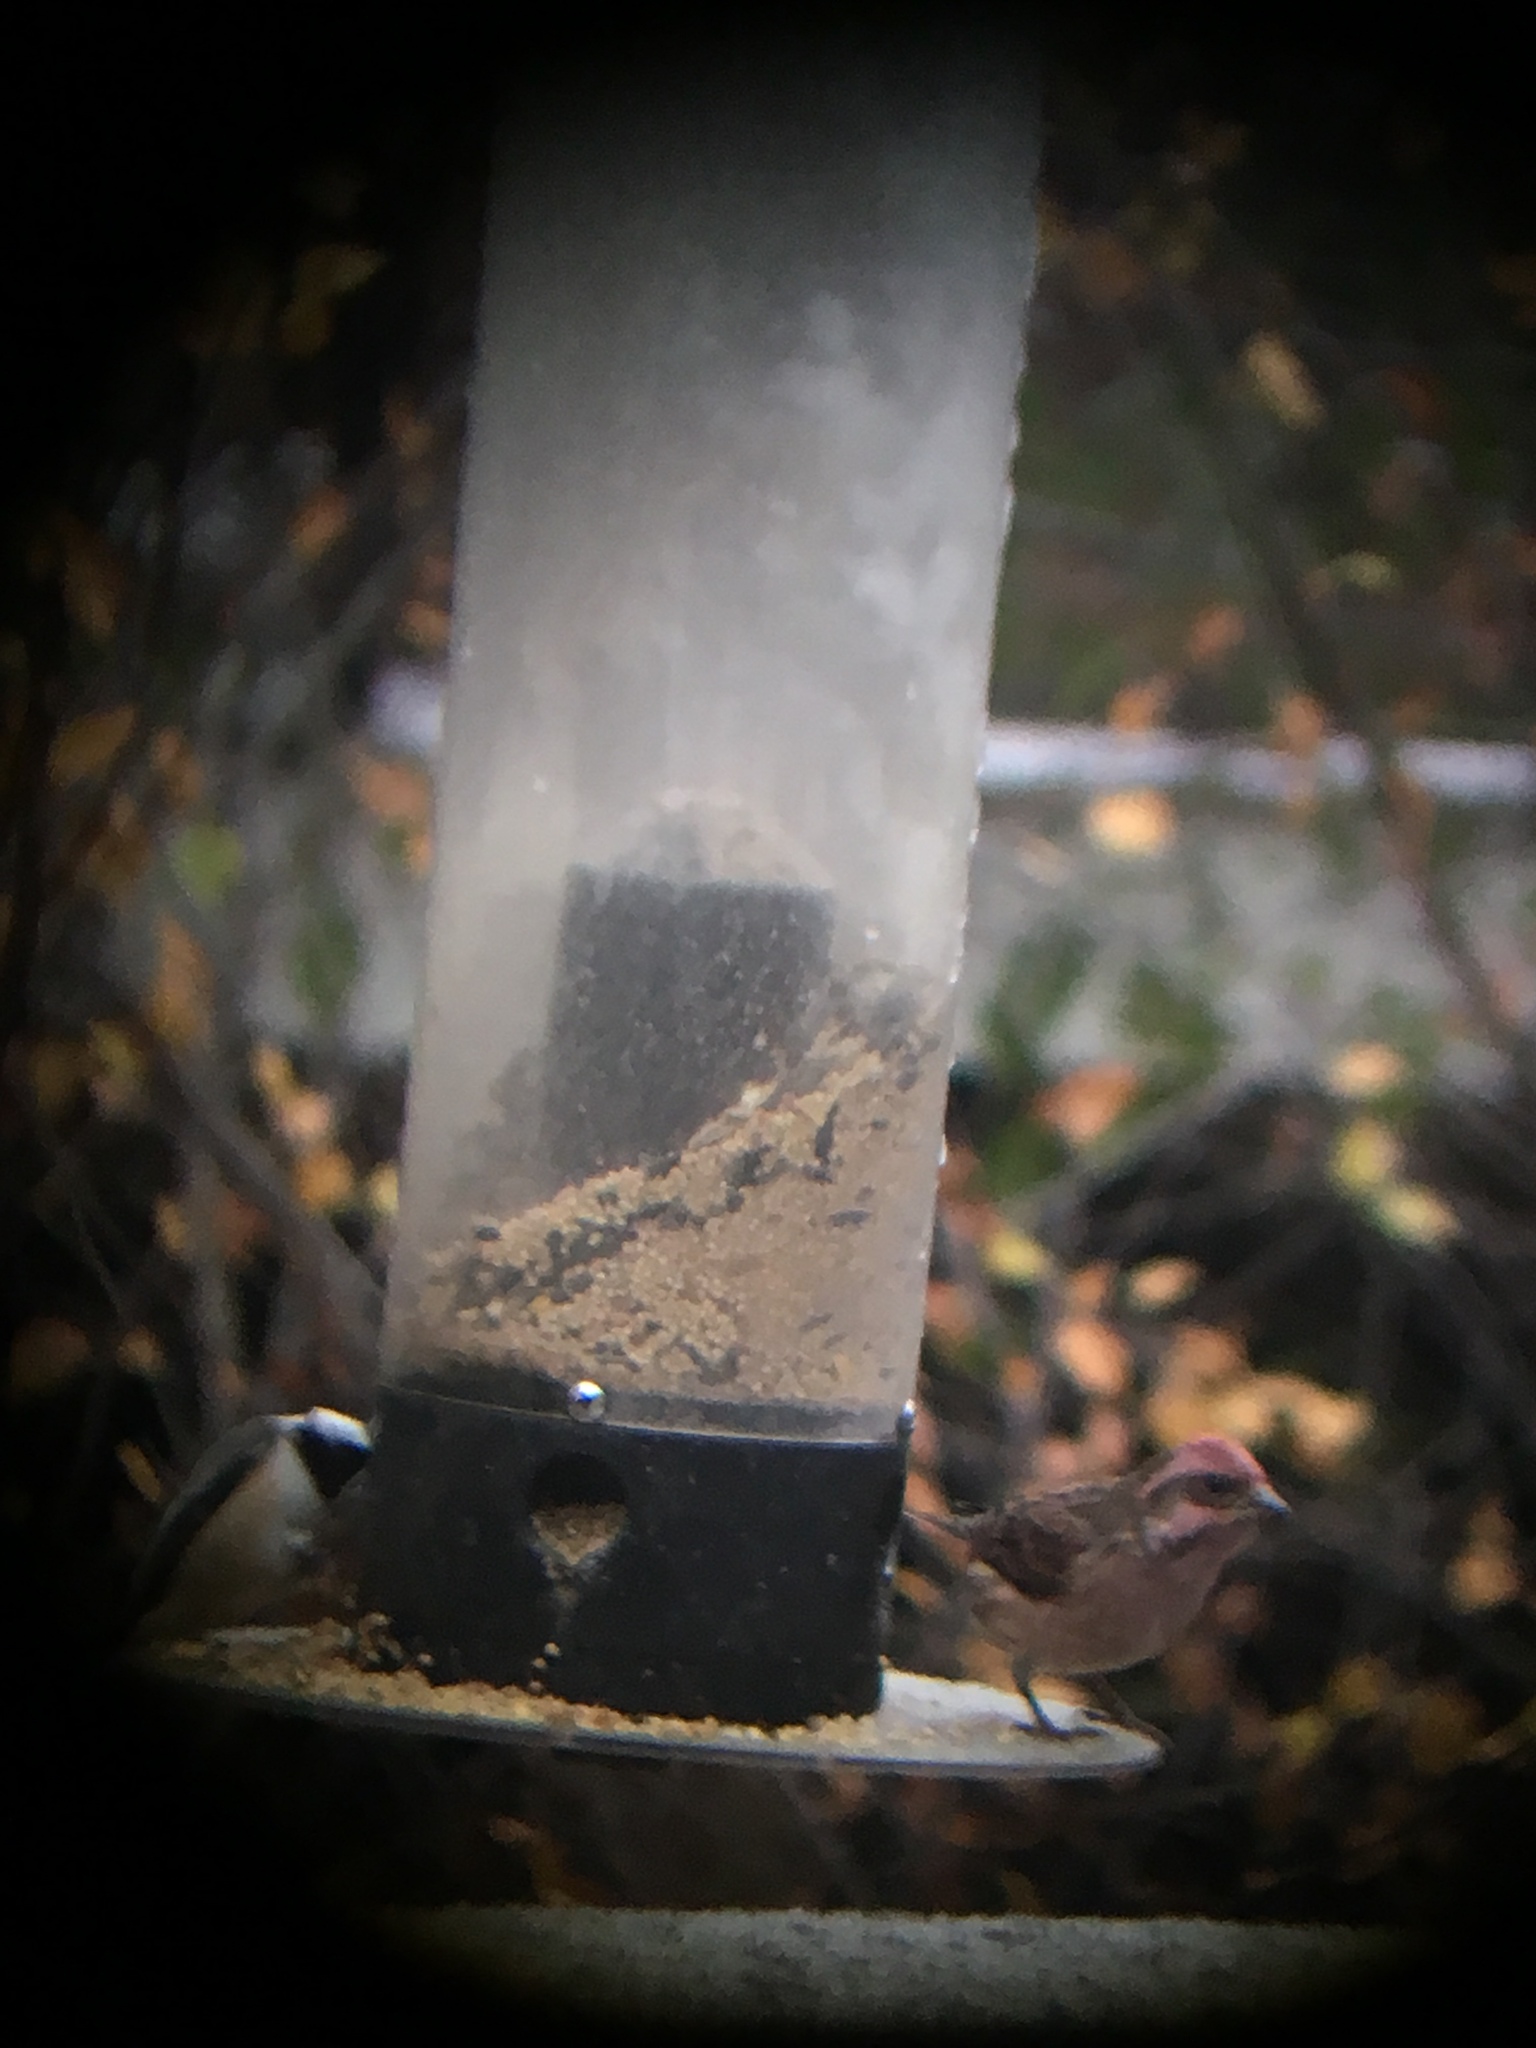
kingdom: Animalia
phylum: Chordata
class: Aves
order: Passeriformes
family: Fringillidae
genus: Haemorhous
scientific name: Haemorhous purpureus
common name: Purple finch
